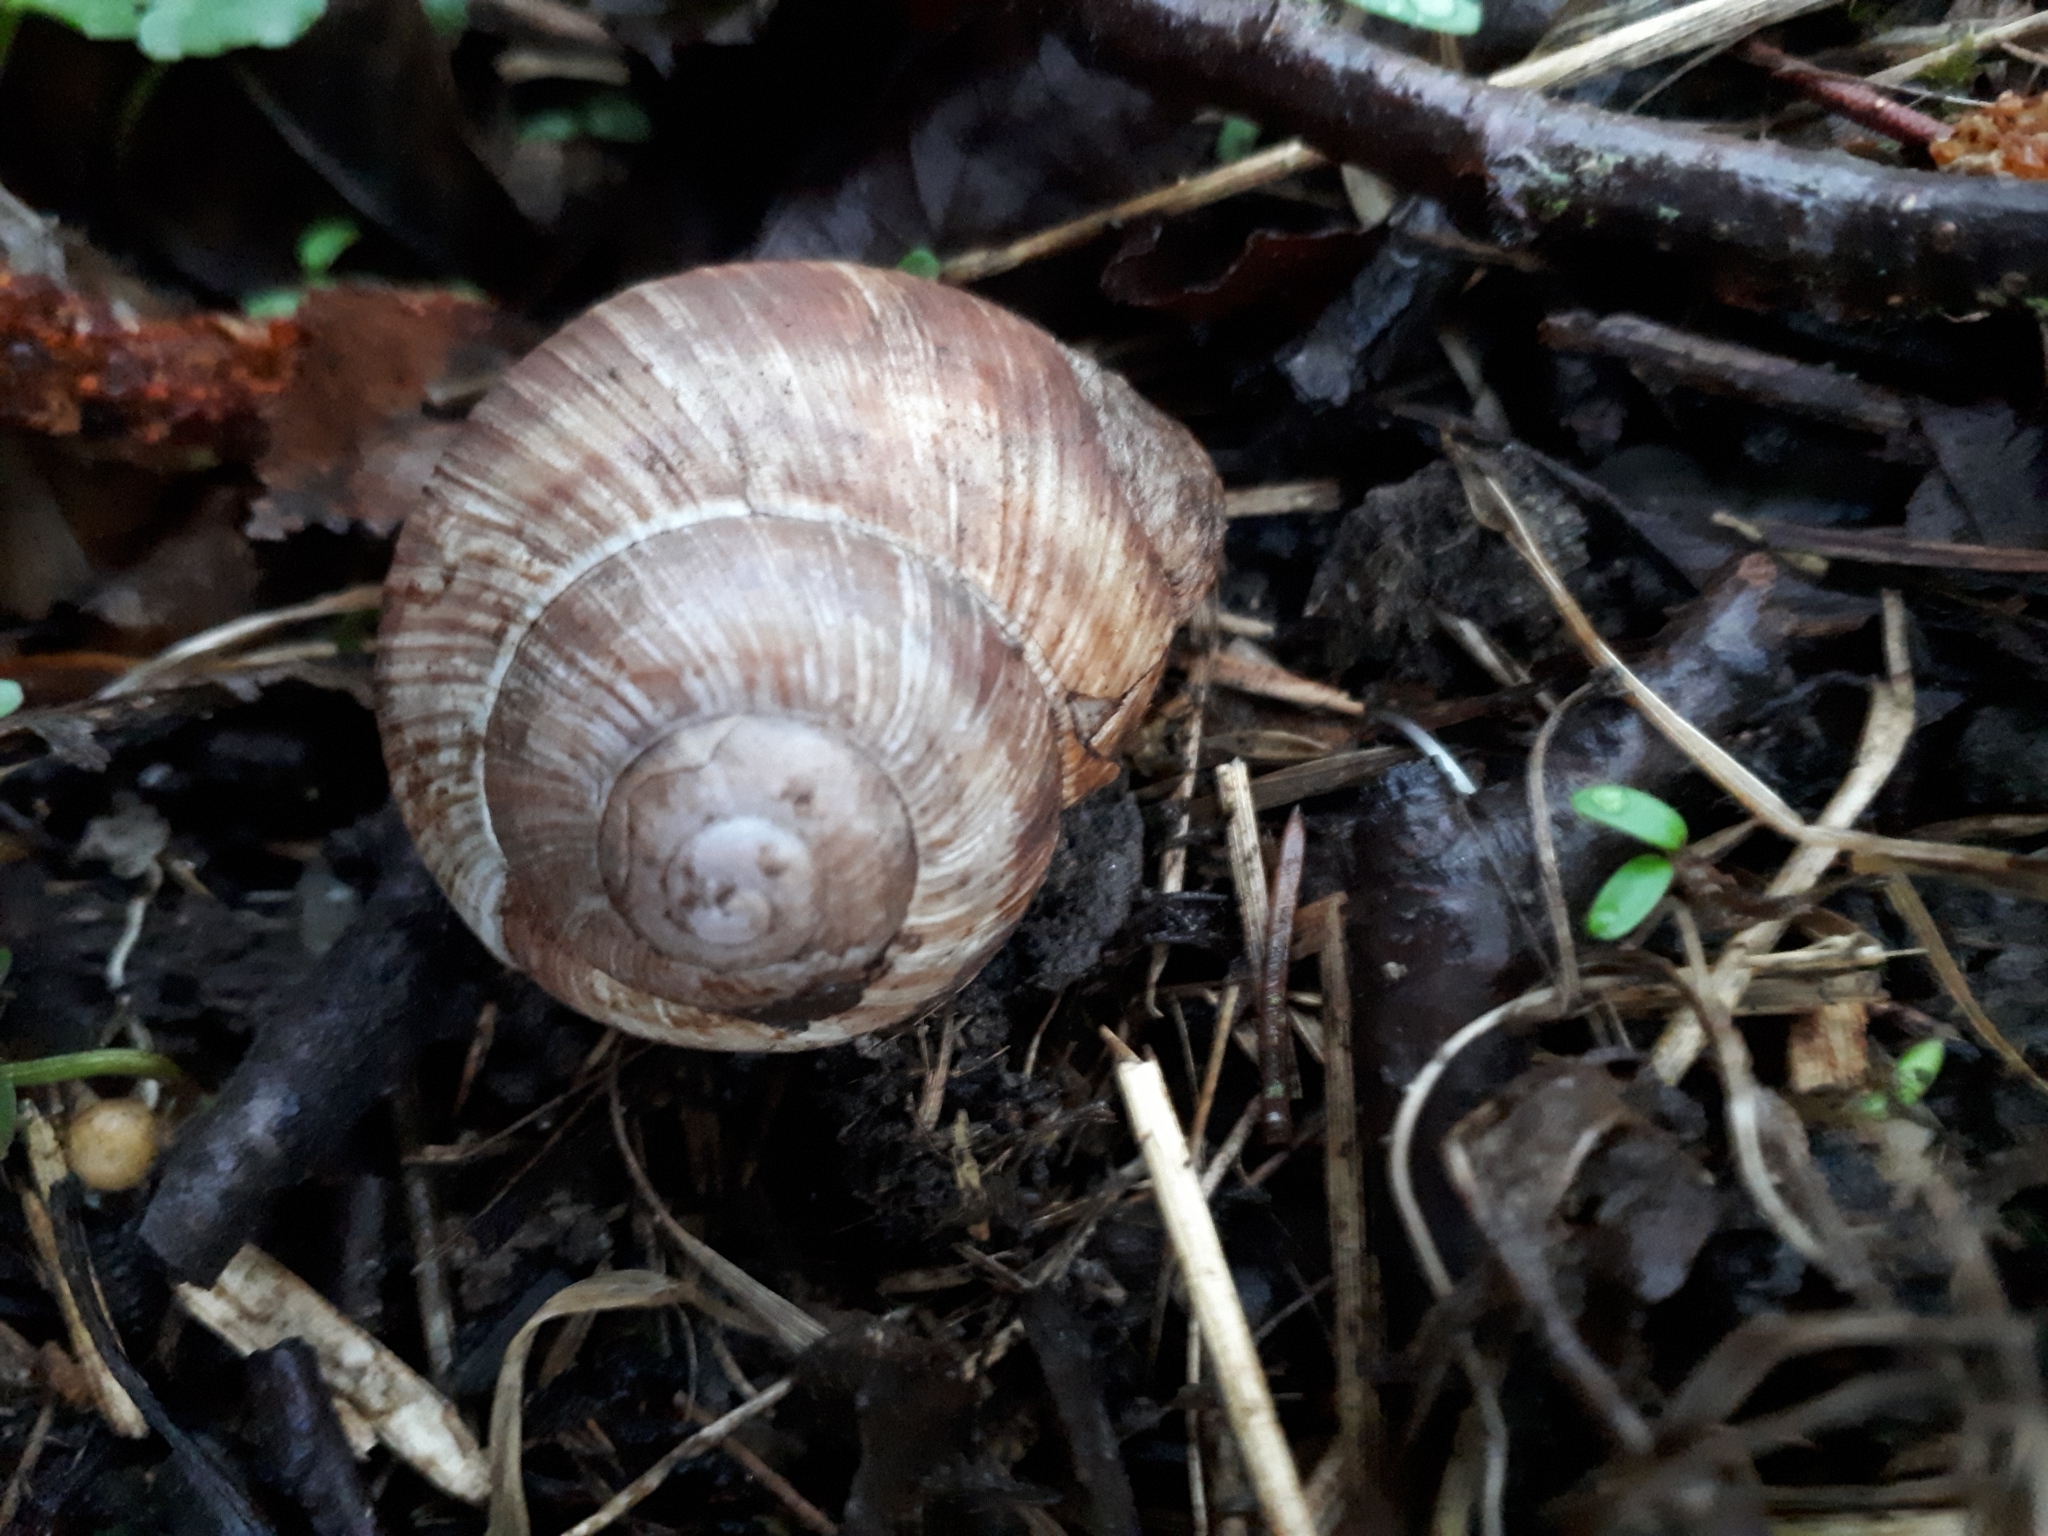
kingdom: Animalia
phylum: Mollusca
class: Gastropoda
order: Stylommatophora
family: Helicidae
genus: Helix
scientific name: Helix pomatia
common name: Roman snail
